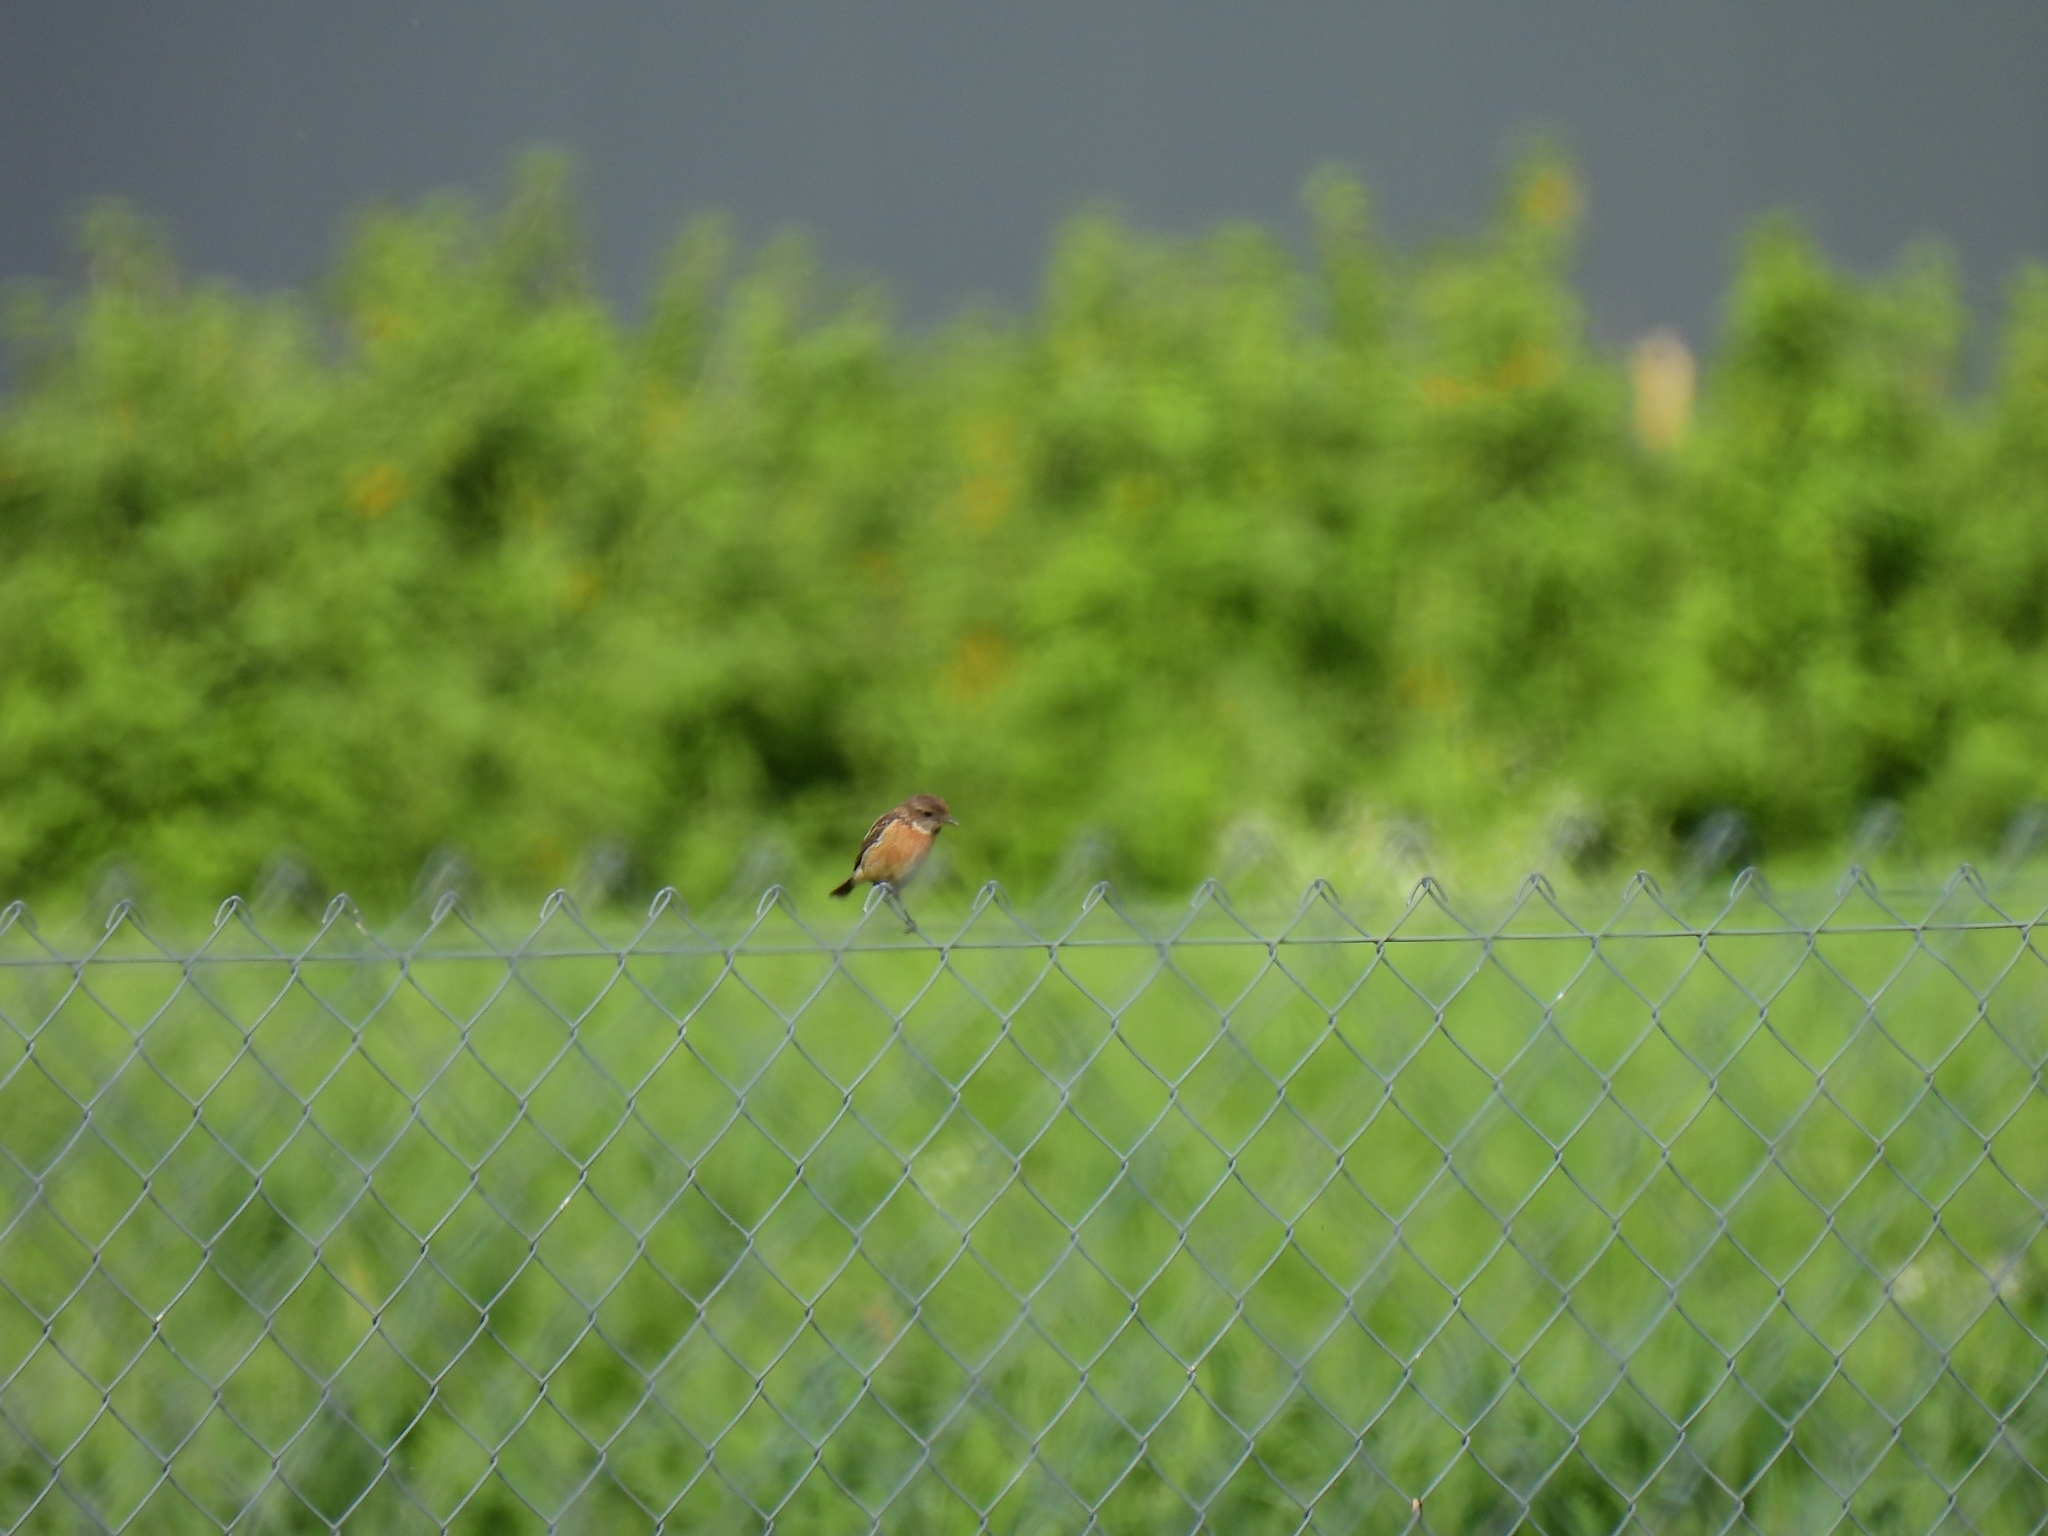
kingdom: Animalia
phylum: Chordata
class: Aves
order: Passeriformes
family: Muscicapidae
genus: Saxicola
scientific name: Saxicola rubicola
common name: European stonechat
